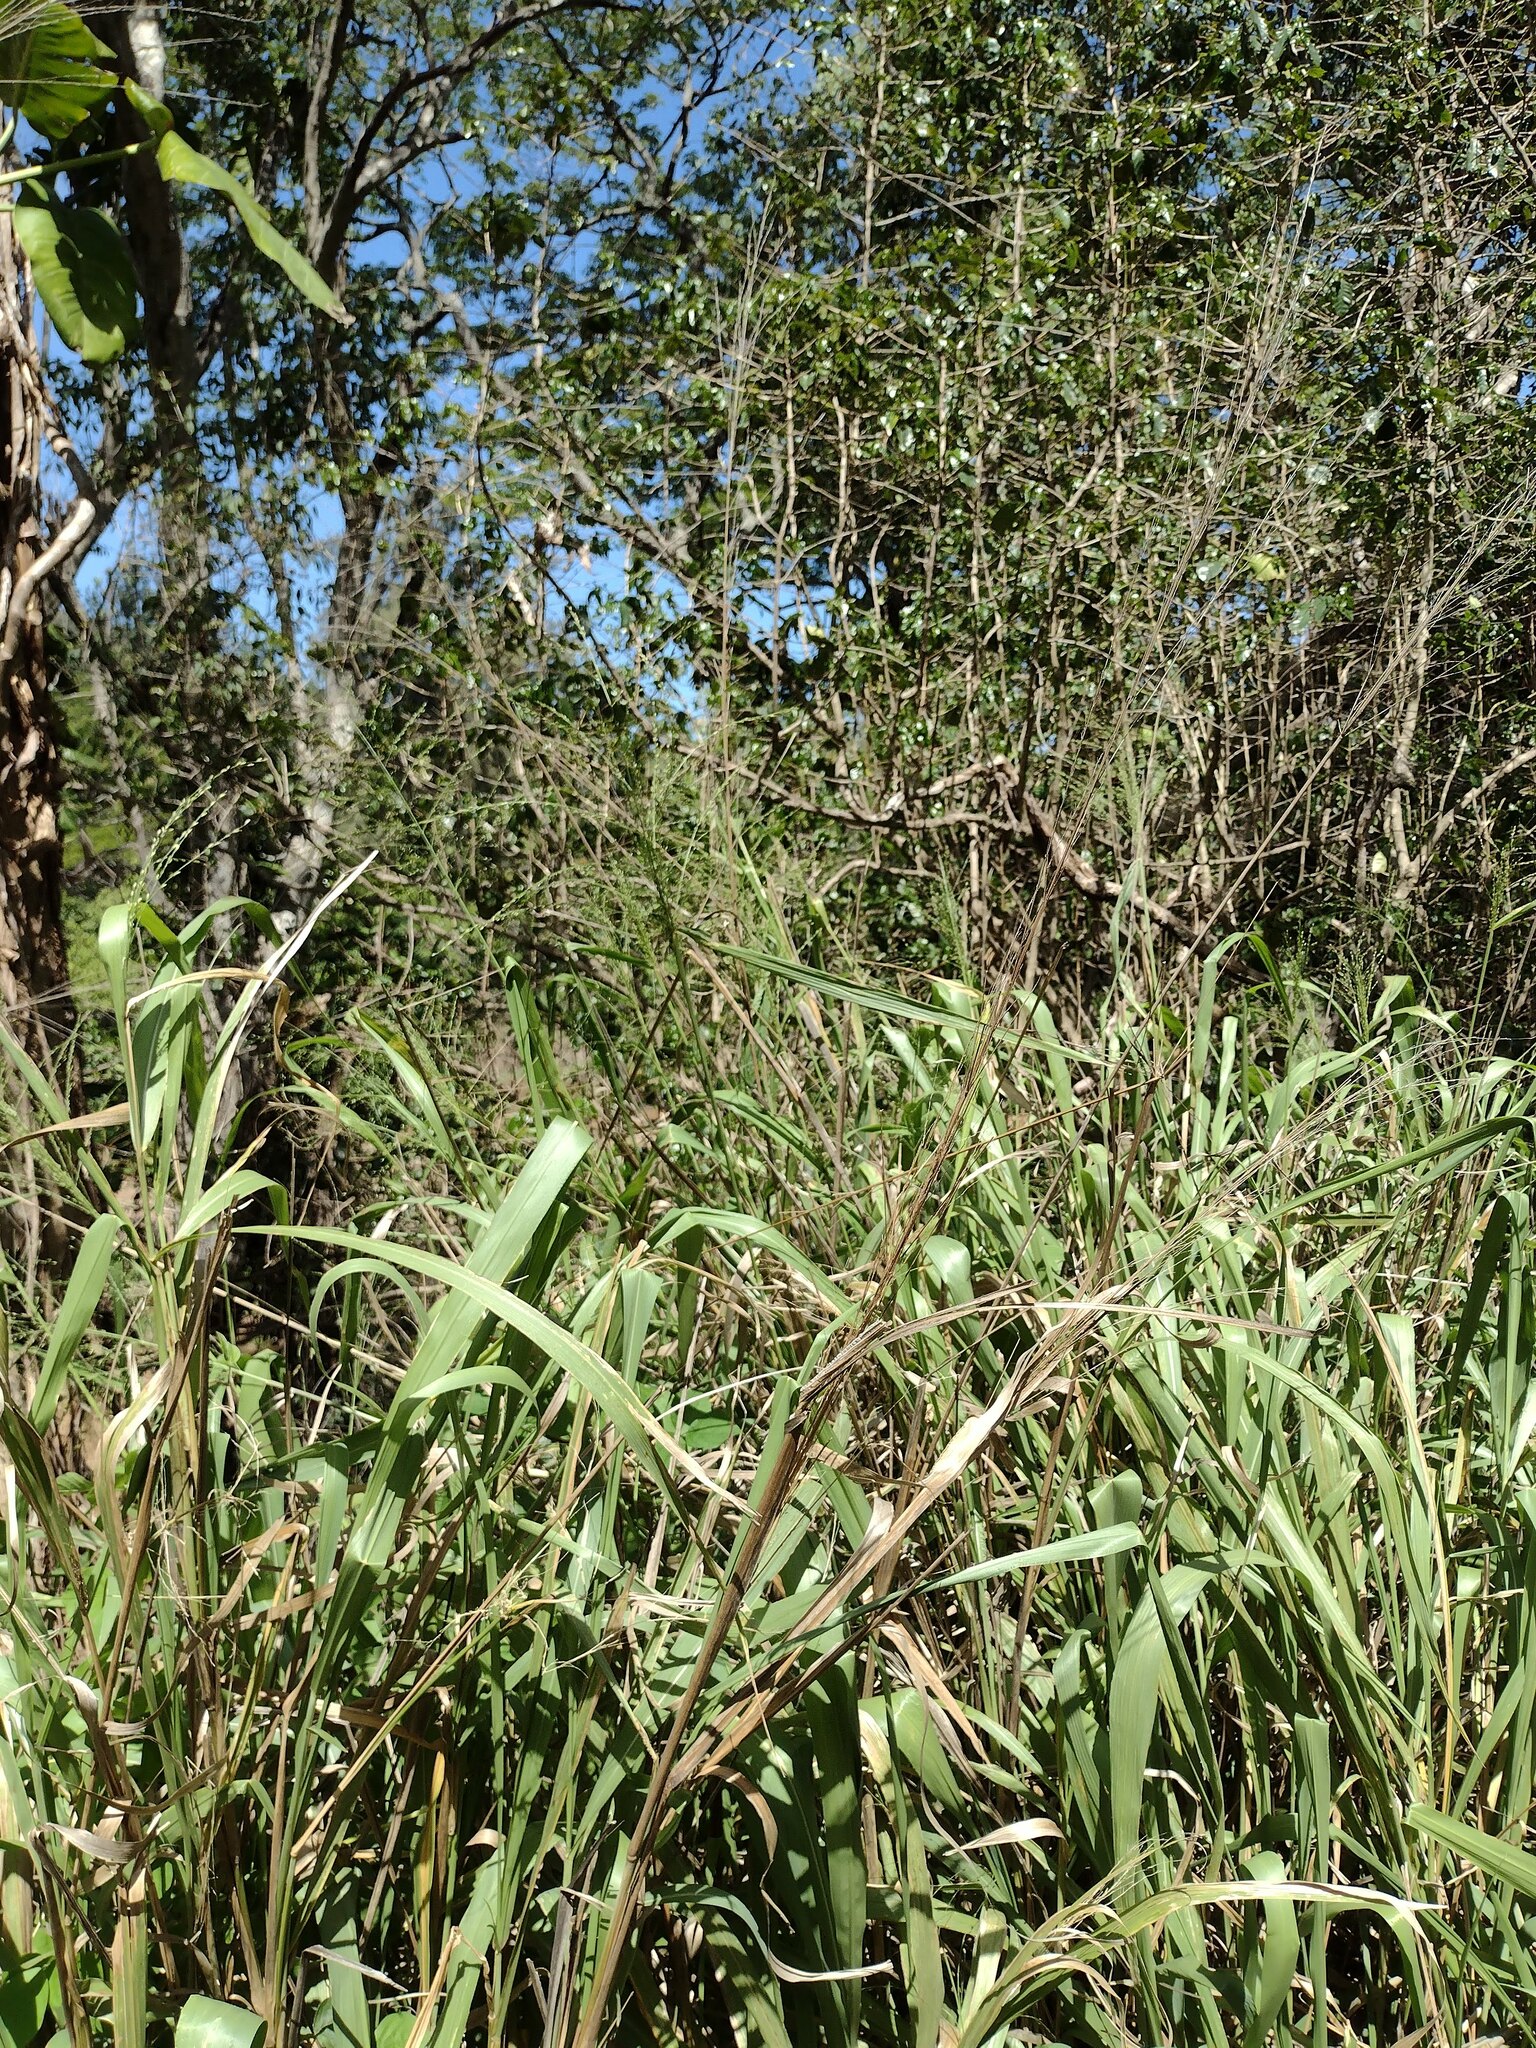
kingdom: Plantae
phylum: Tracheophyta
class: Liliopsida
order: Poales
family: Poaceae
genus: Megathyrsus
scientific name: Megathyrsus maximus
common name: Guineagrass
